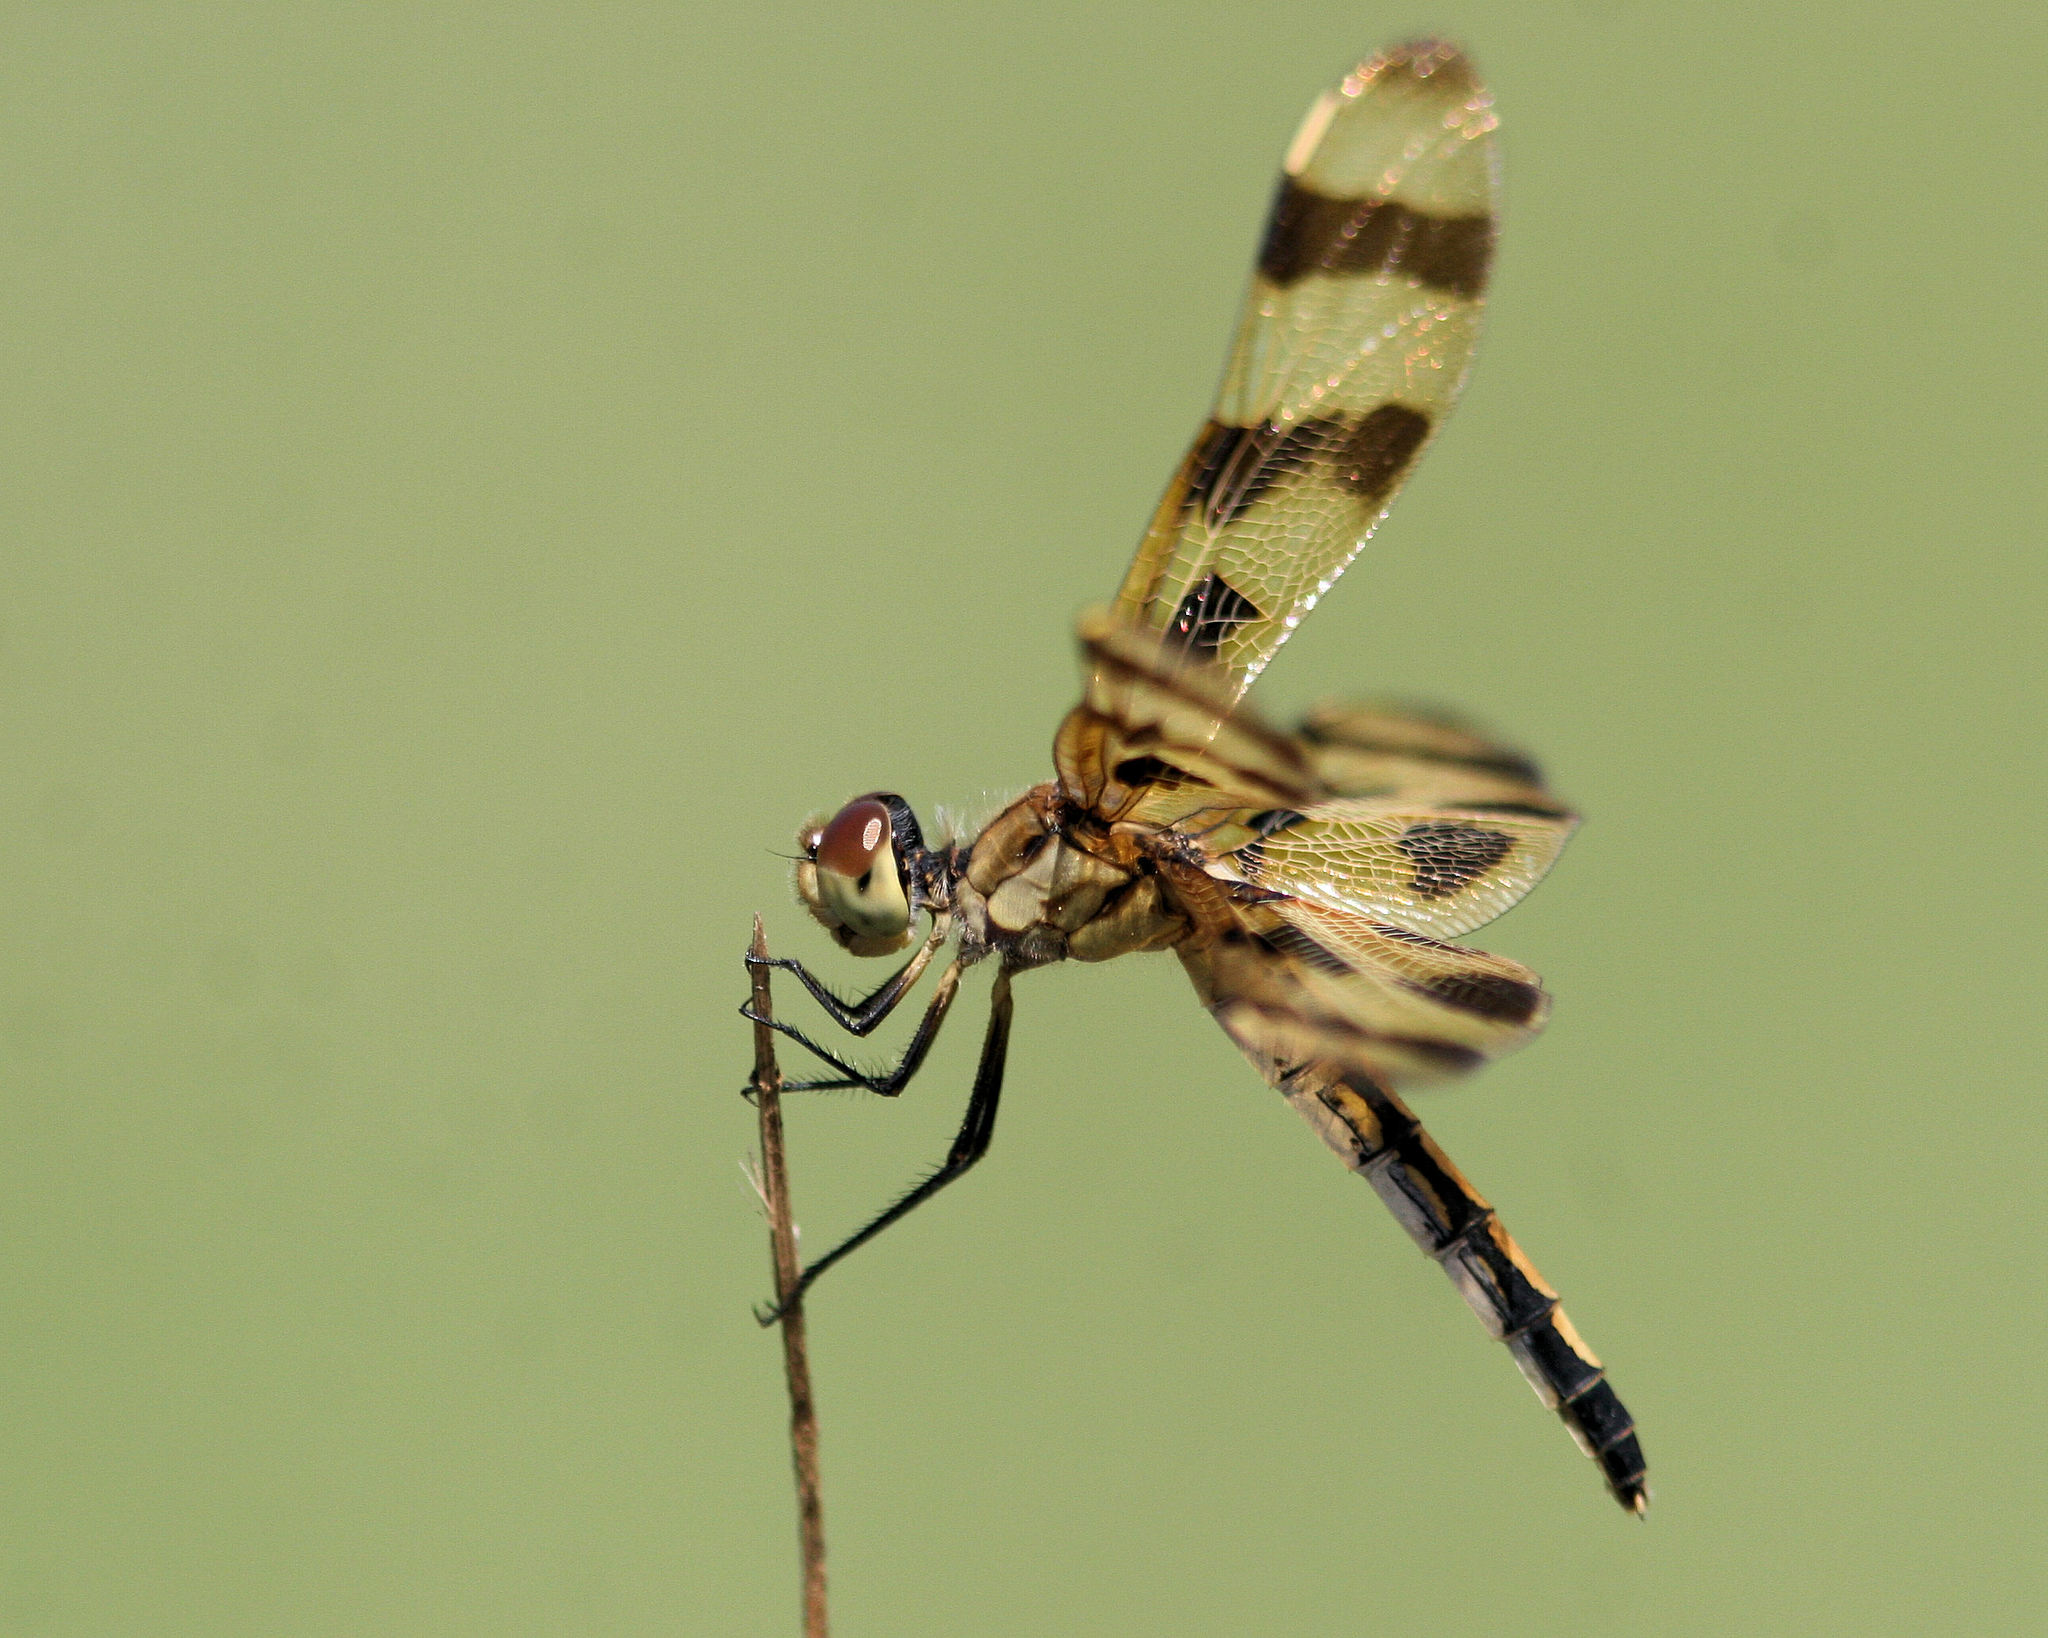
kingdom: Animalia
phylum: Arthropoda
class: Insecta
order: Odonata
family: Libellulidae
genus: Celithemis
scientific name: Celithemis eponina
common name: Halloween pennant
